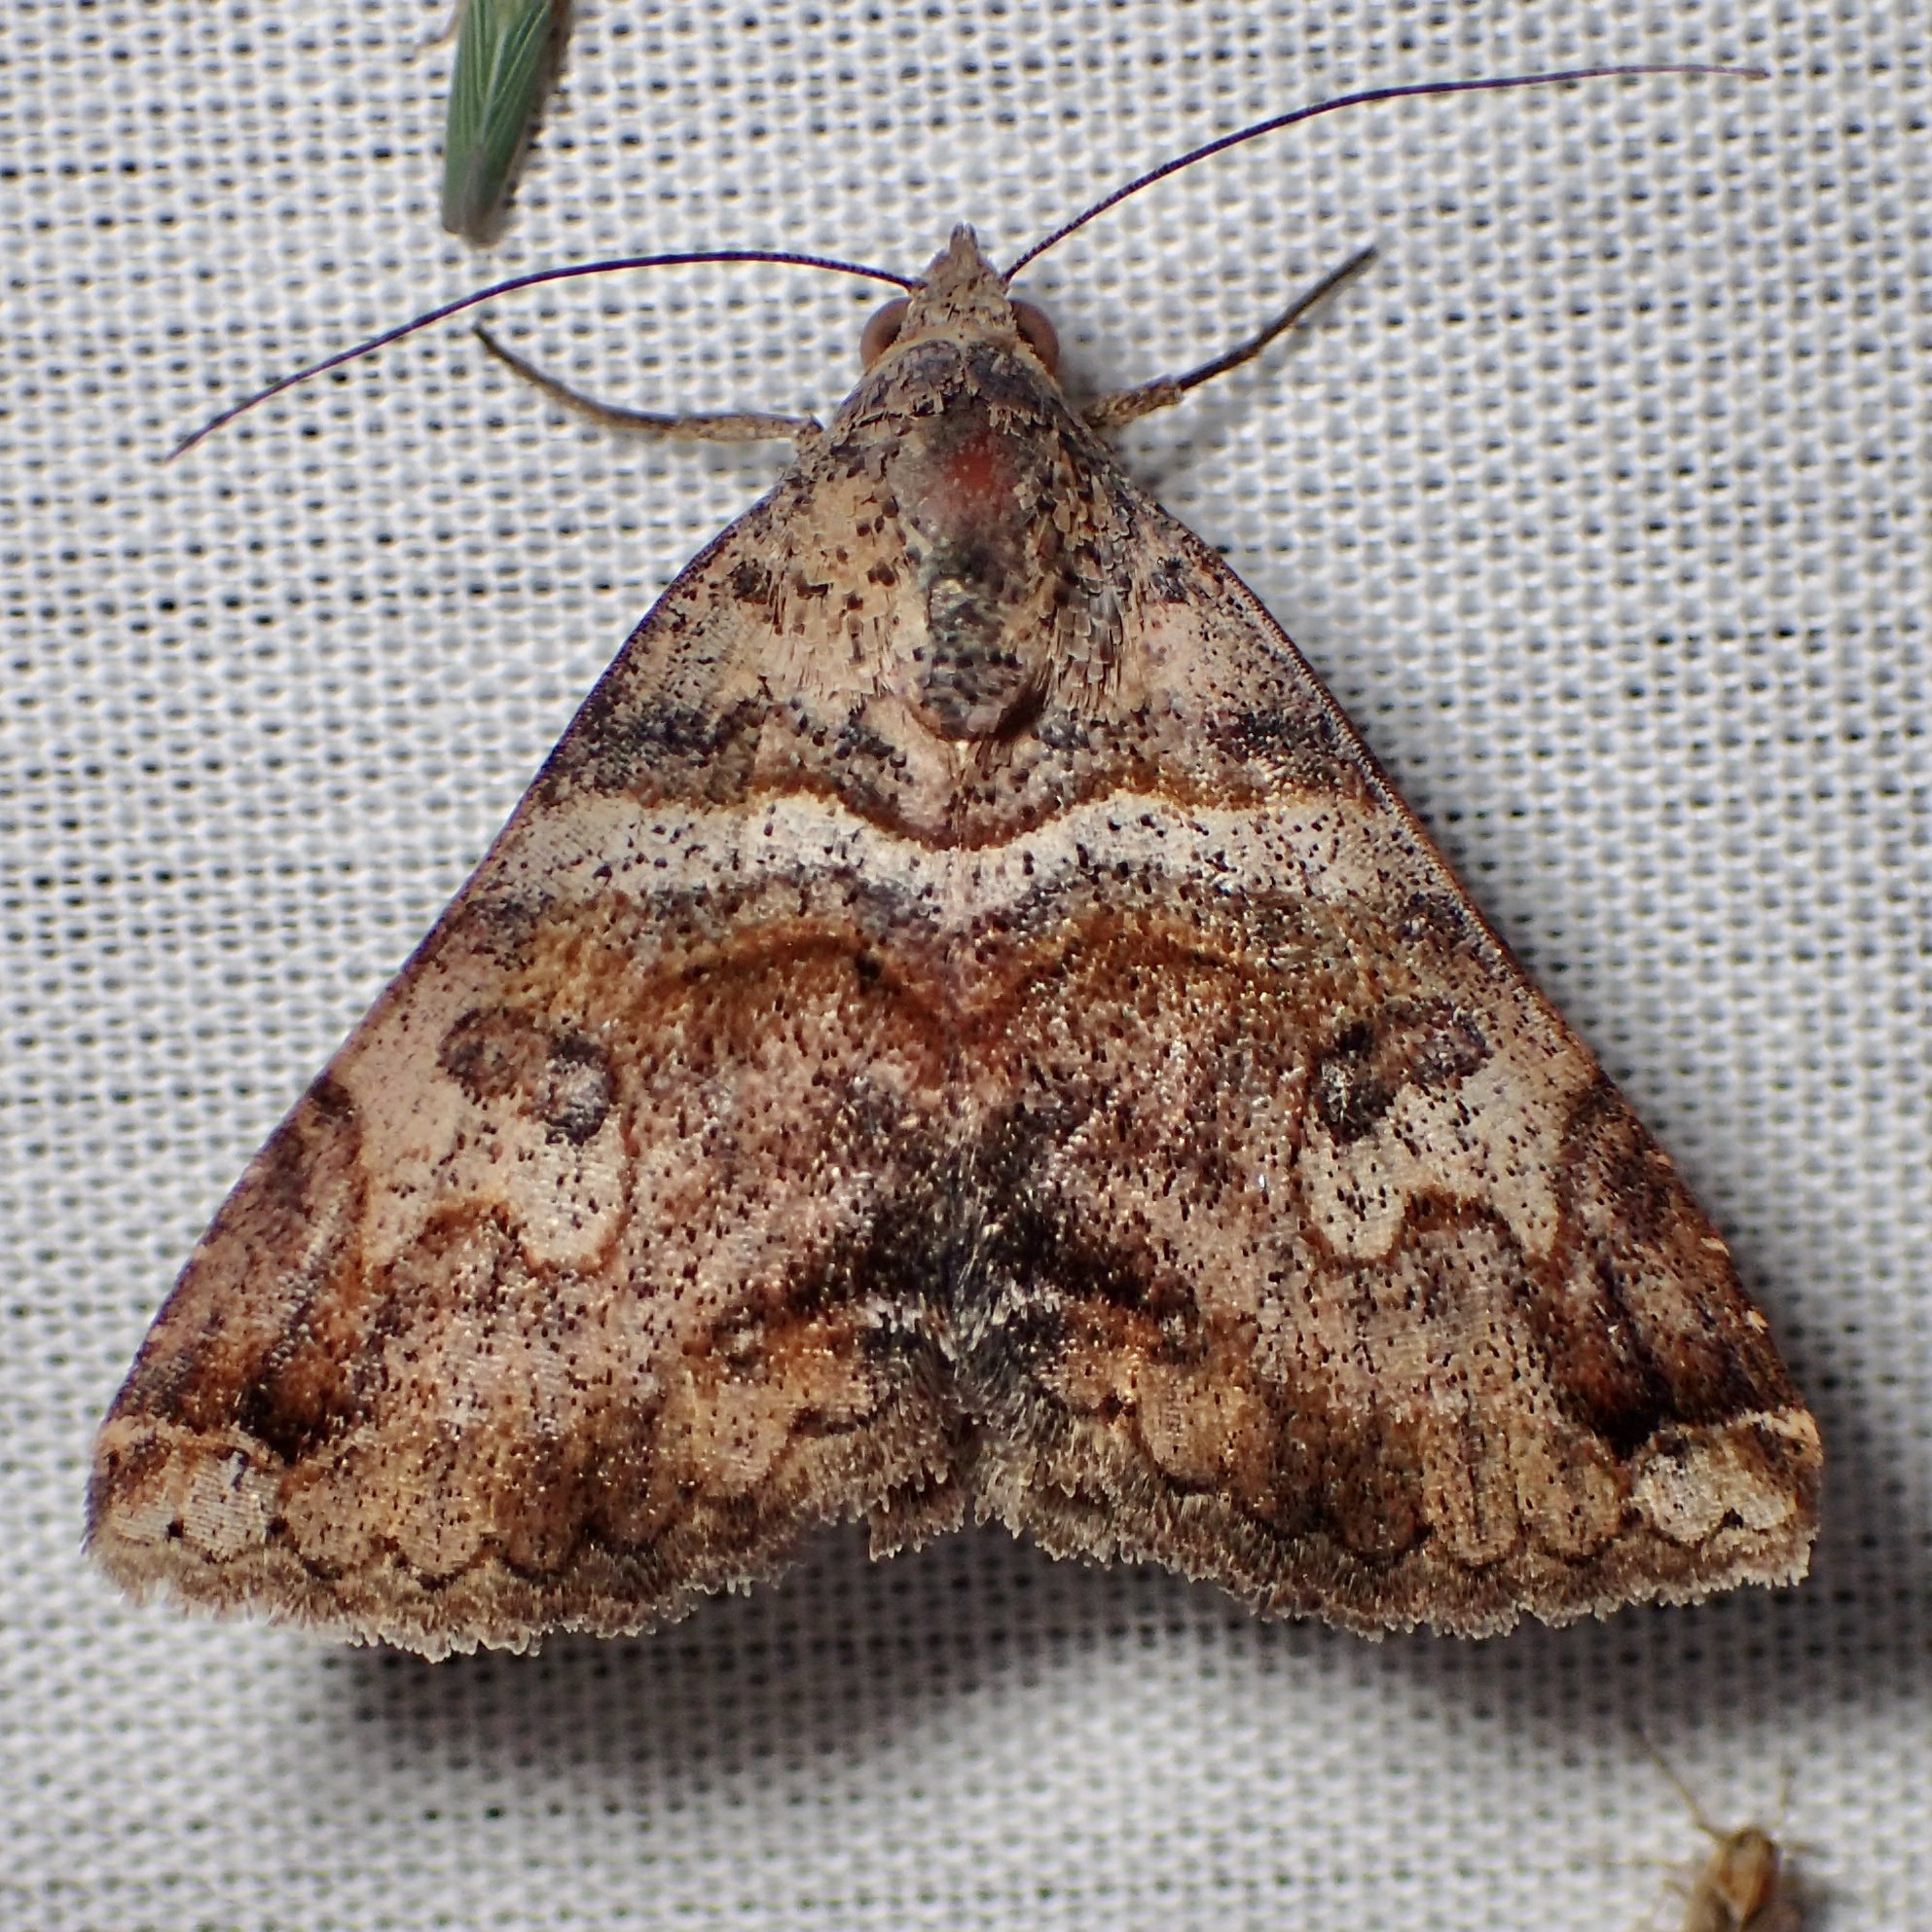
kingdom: Animalia
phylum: Arthropoda
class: Insecta
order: Lepidoptera
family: Erebidae
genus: Panula
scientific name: Panula inconstans
